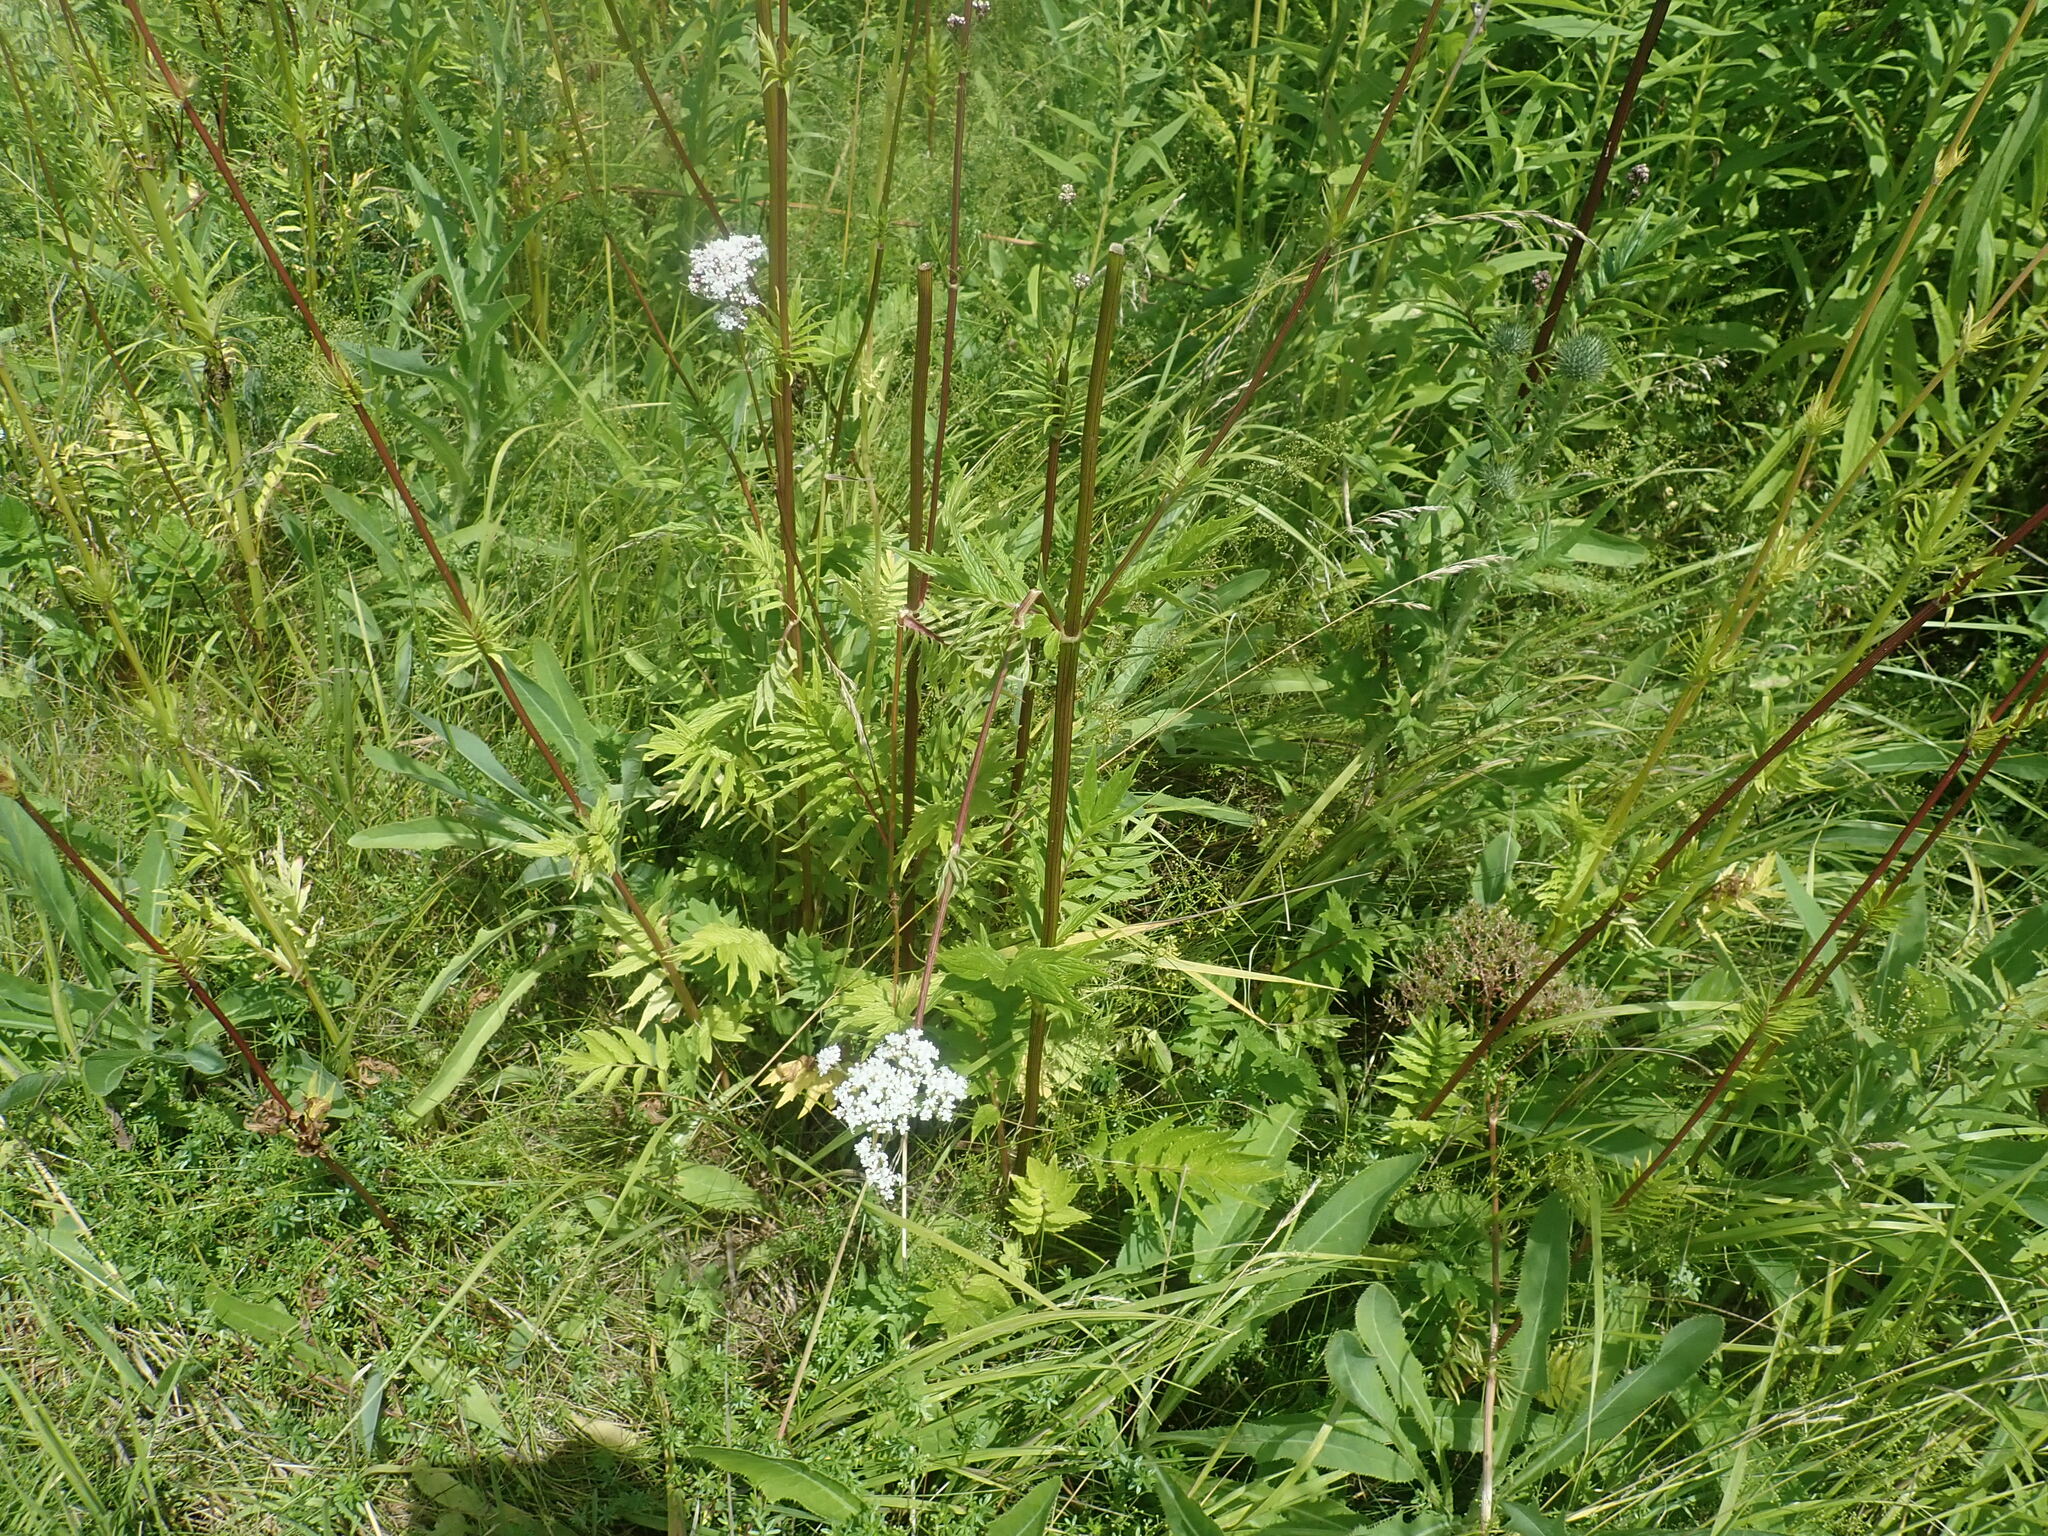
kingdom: Plantae
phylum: Tracheophyta
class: Magnoliopsida
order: Dipsacales
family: Caprifoliaceae
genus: Valeriana
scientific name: Valeriana officinalis
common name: Common valerian
